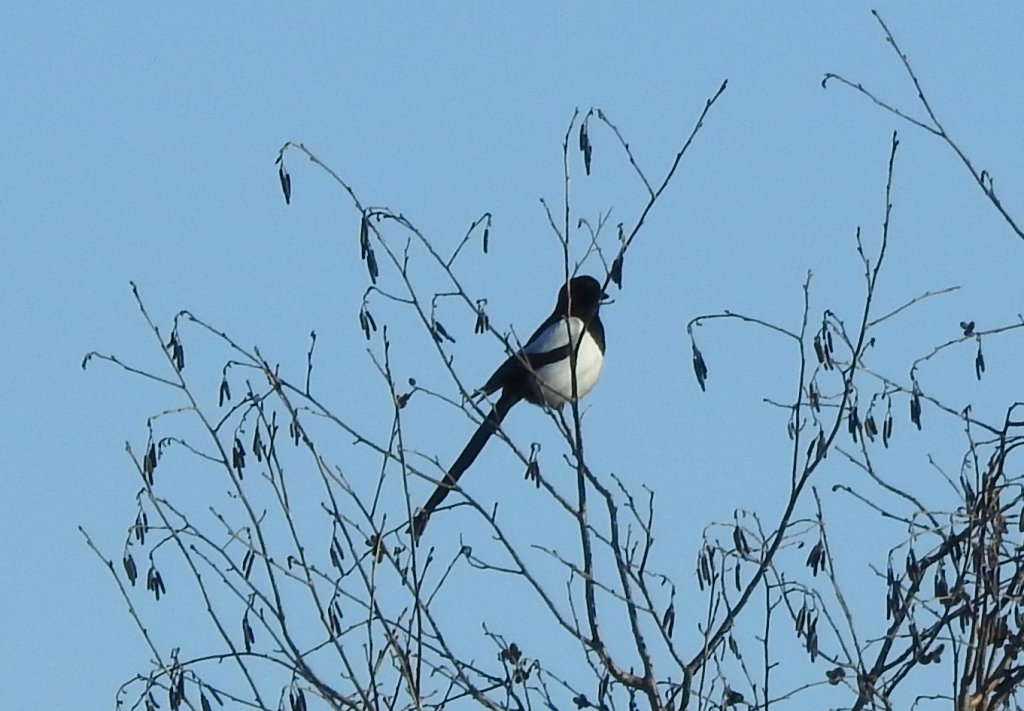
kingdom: Animalia
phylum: Chordata
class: Aves
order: Passeriformes
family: Corvidae
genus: Pica
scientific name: Pica pica
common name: Eurasian magpie
